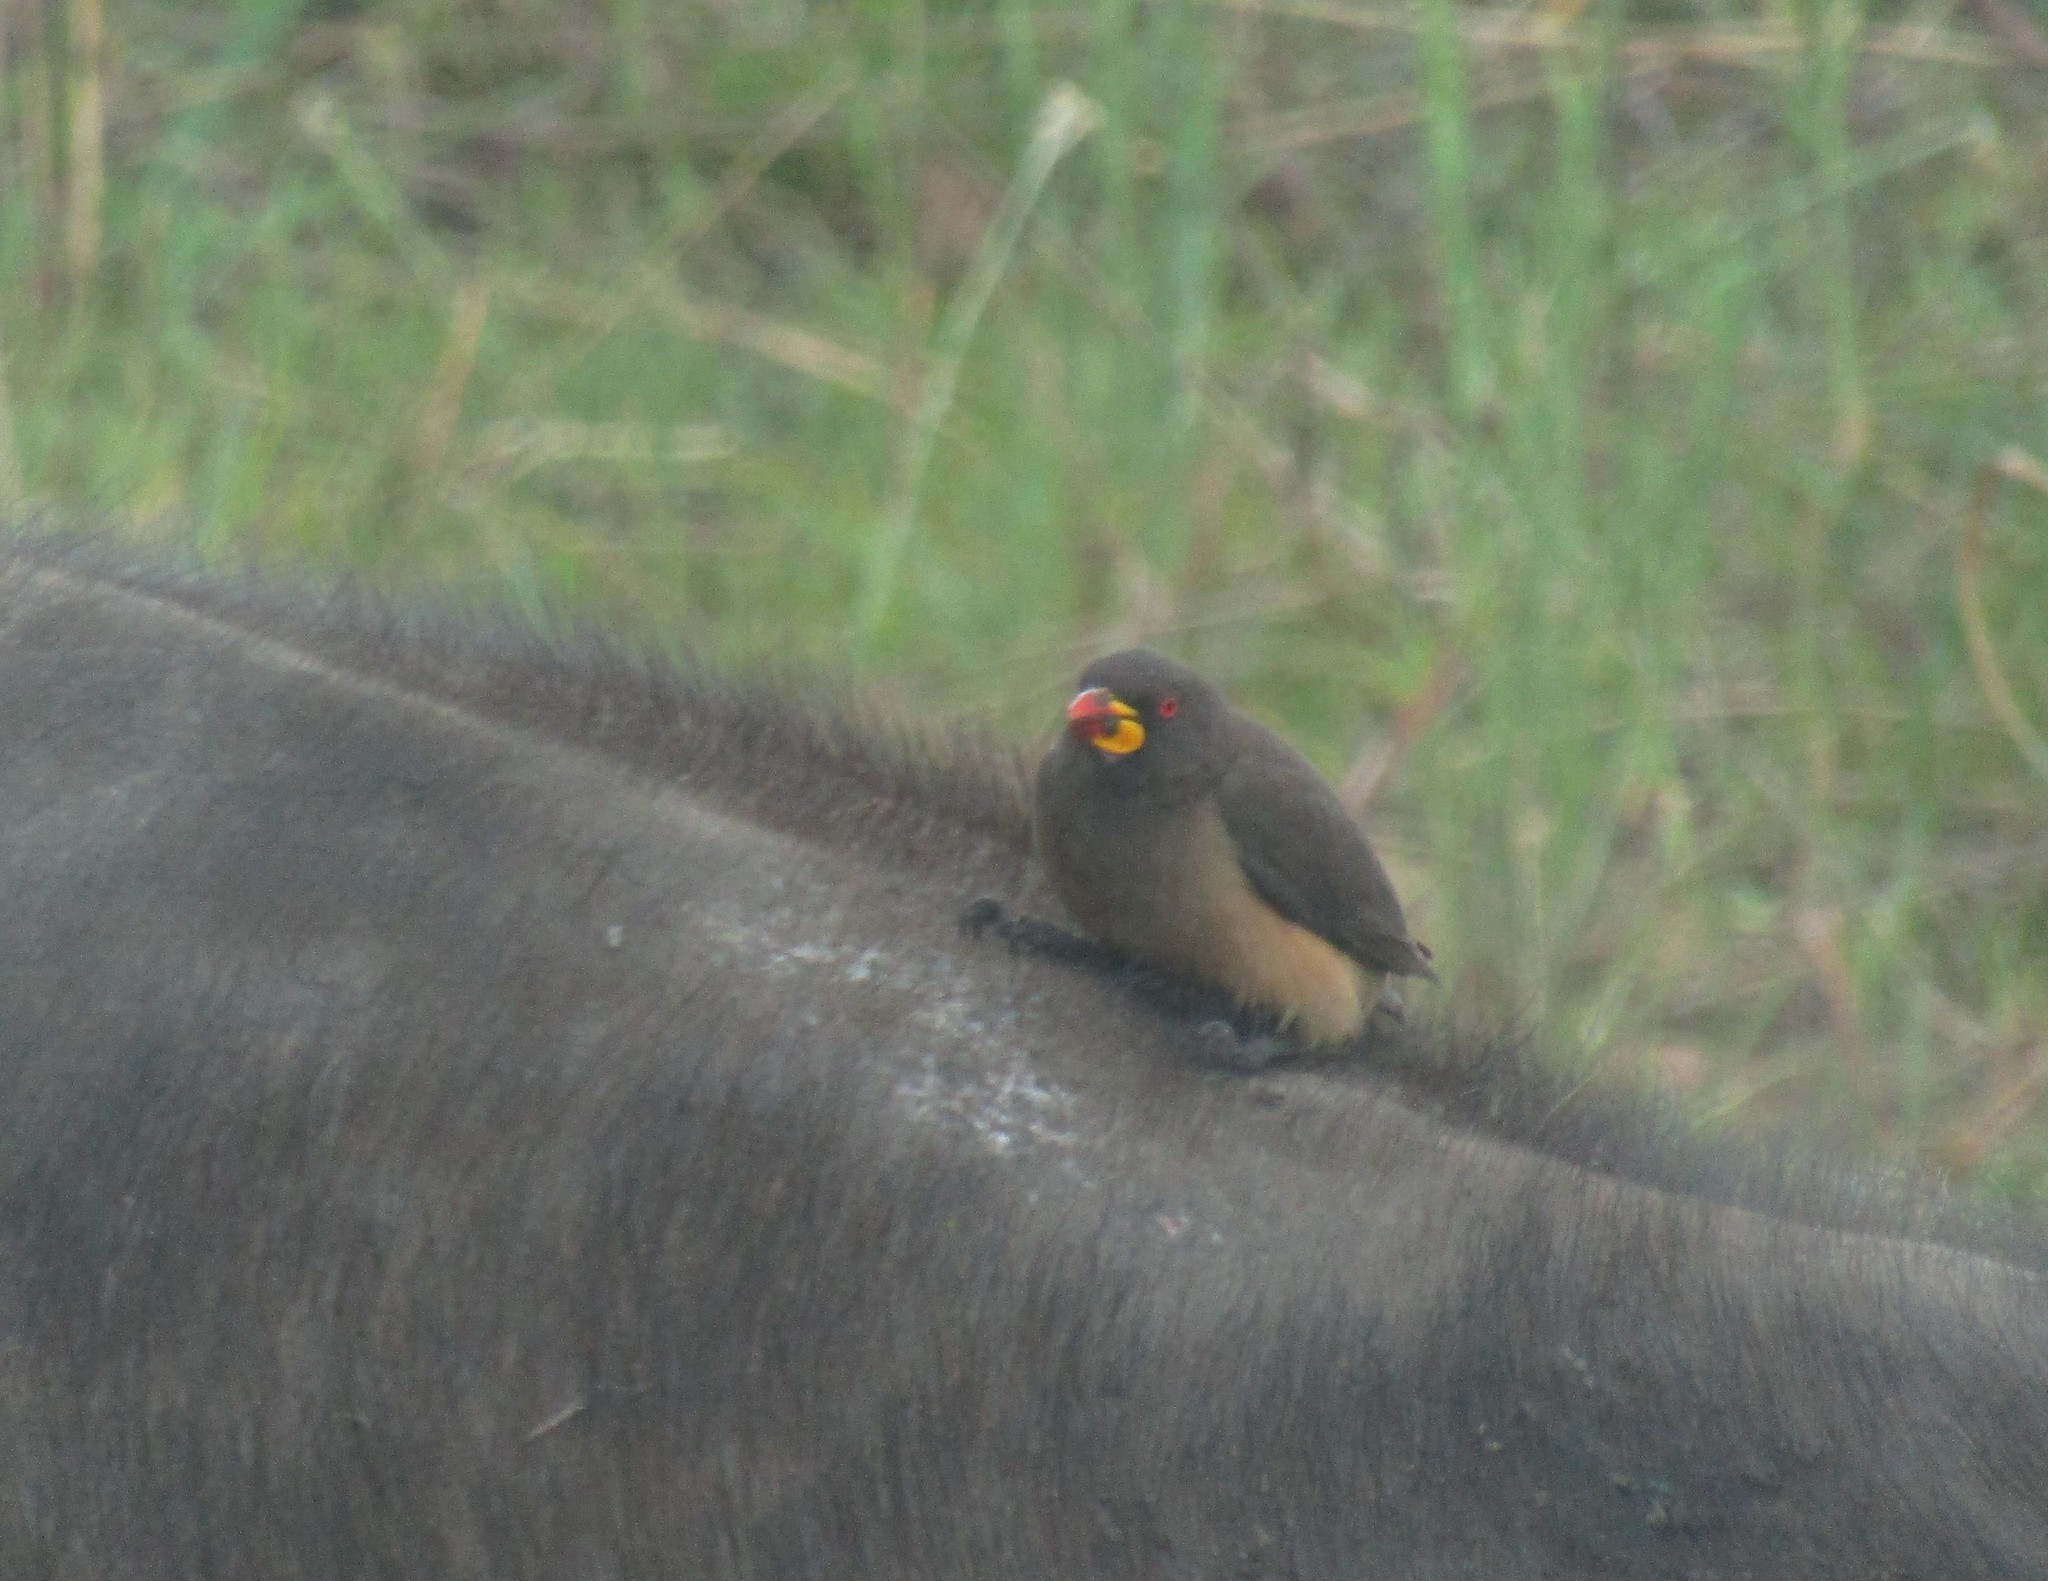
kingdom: Animalia
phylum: Chordata
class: Aves
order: Passeriformes
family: Buphagidae
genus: Buphagus
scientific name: Buphagus africanus
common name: Yellow-billed oxpecker
